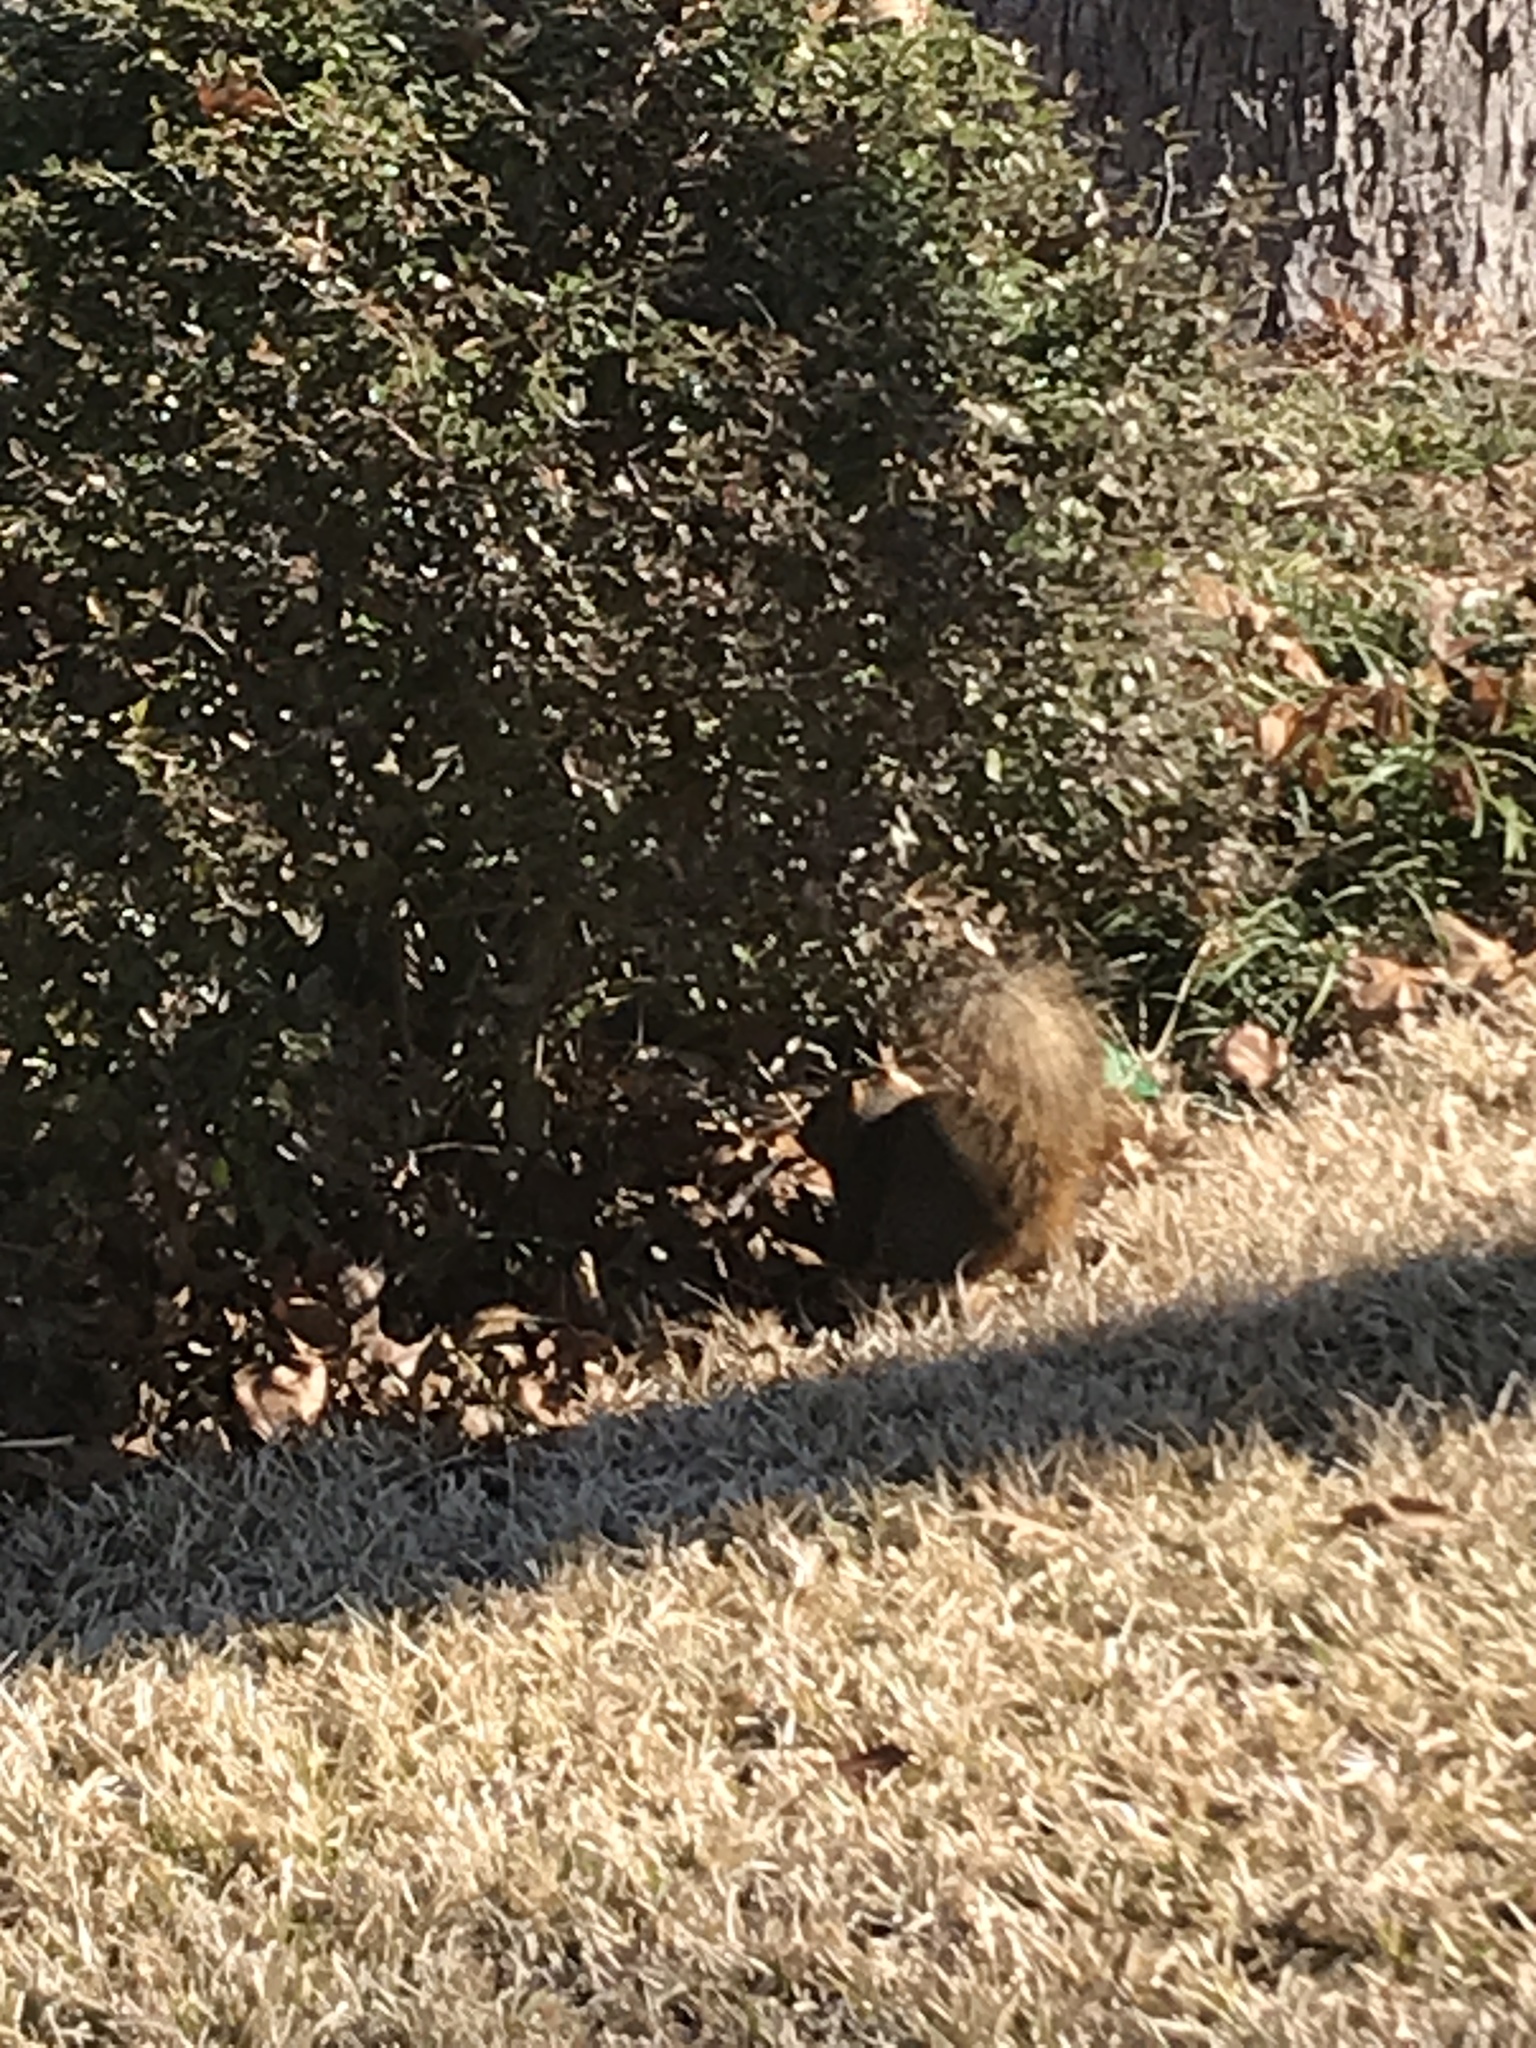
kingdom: Animalia
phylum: Chordata
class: Mammalia
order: Rodentia
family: Sciuridae
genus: Sciurus
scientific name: Sciurus niger
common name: Fox squirrel
